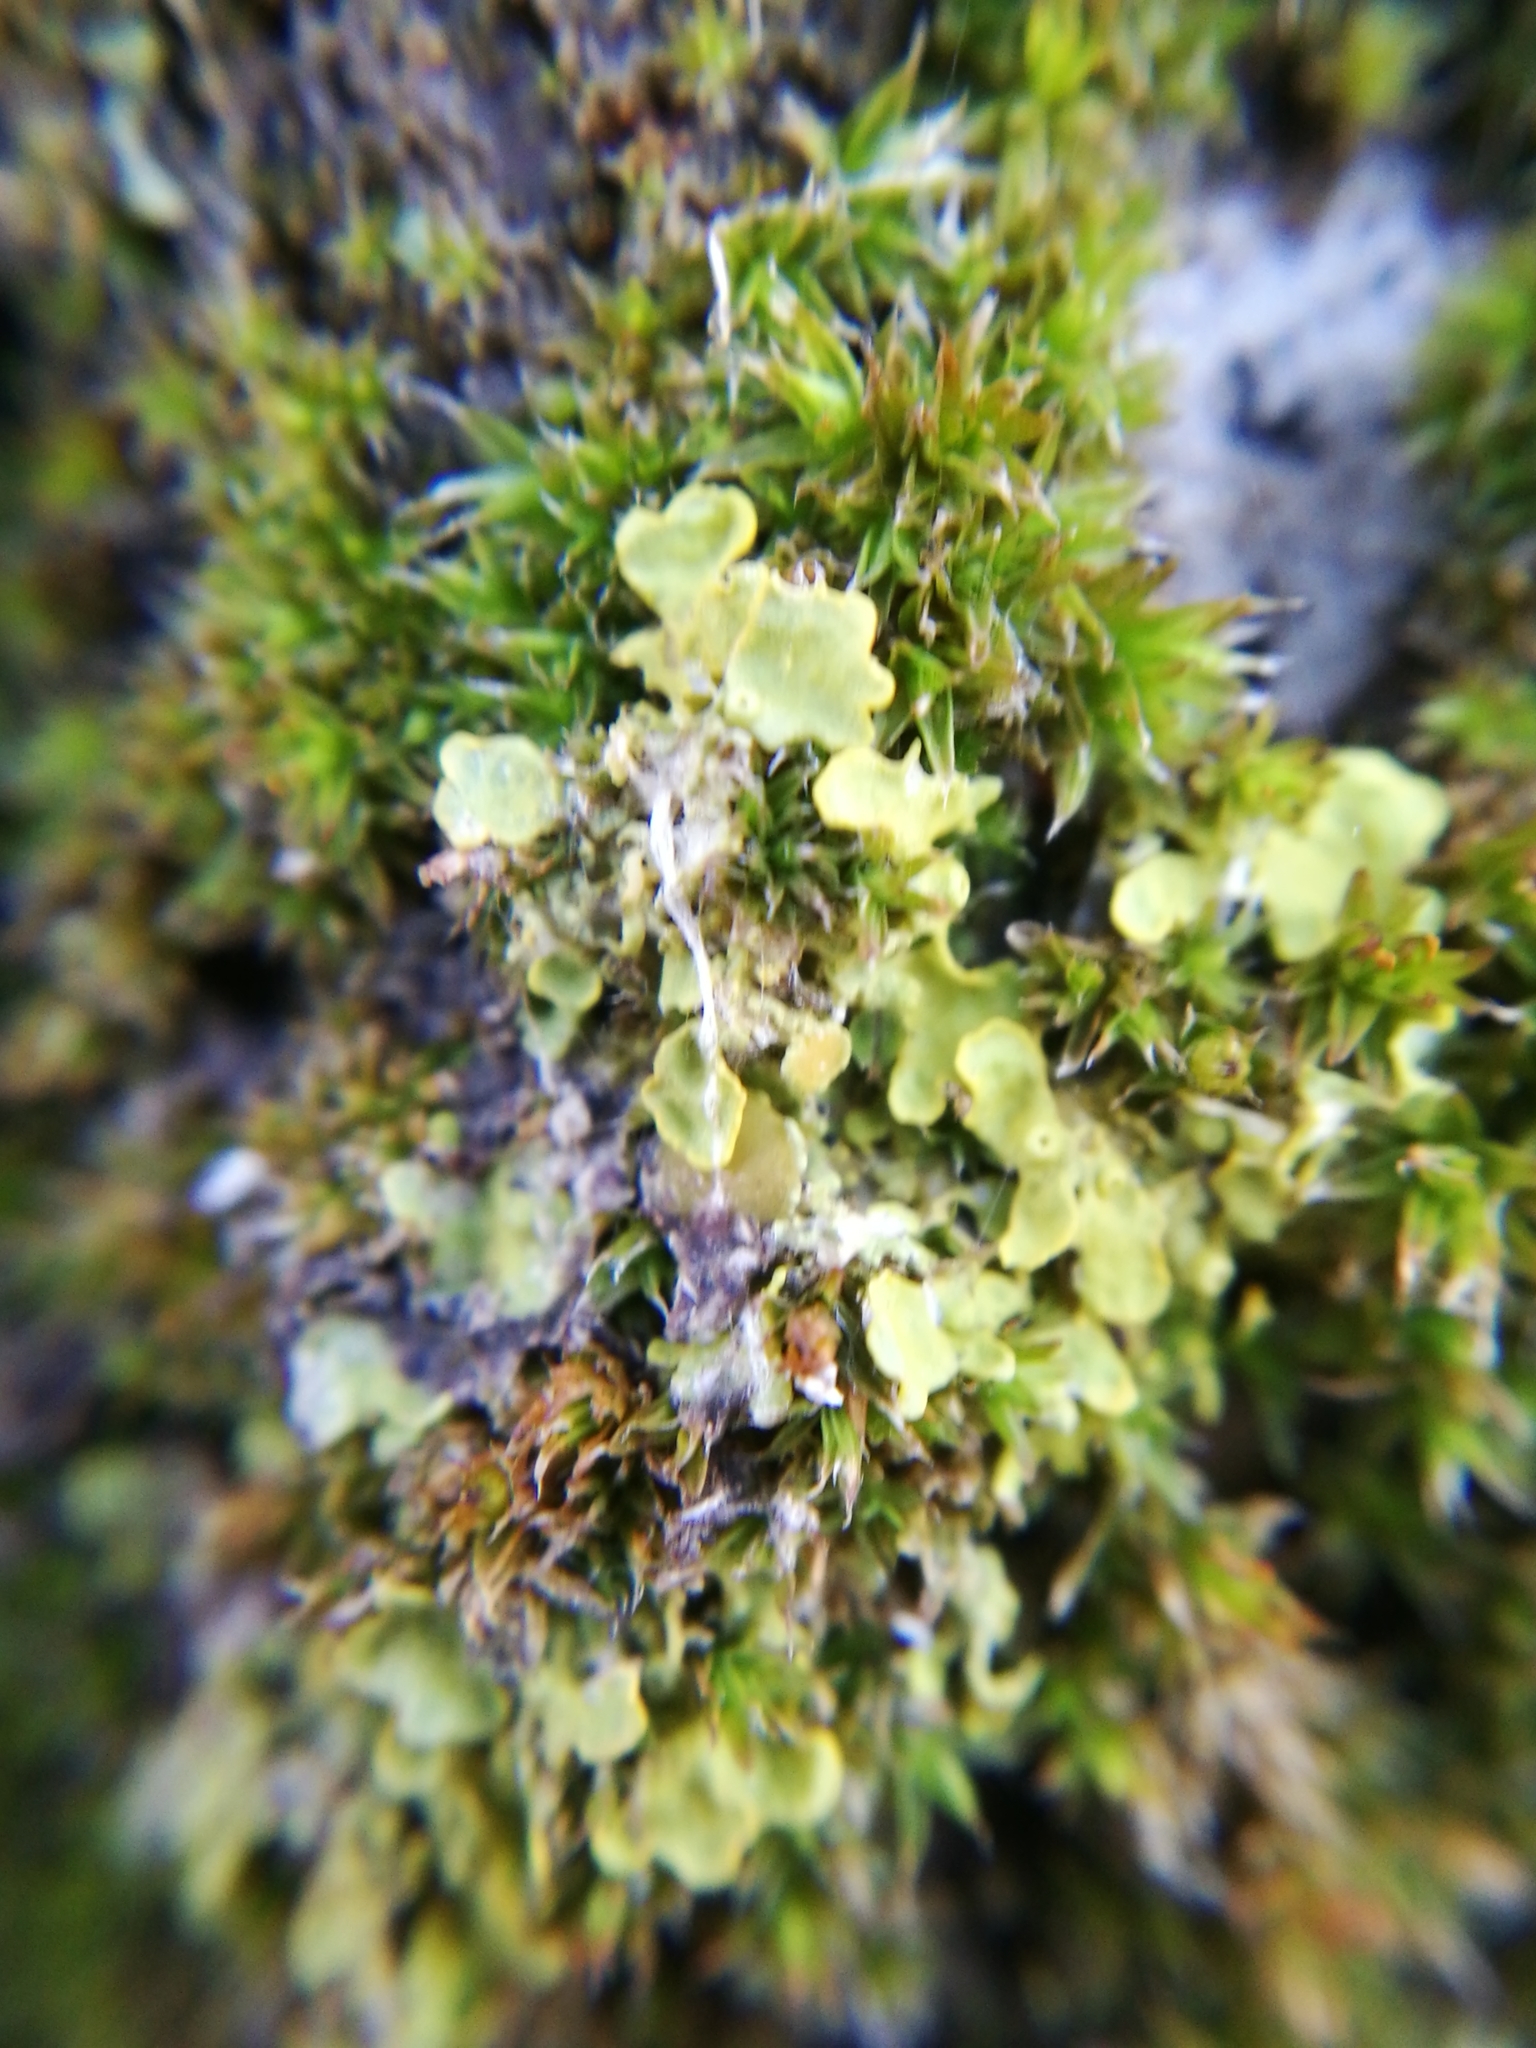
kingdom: Fungi
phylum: Ascomycota
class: Lecanoromycetes
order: Teloschistales
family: Teloschistaceae
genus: Xanthoria
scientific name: Xanthoria parietina
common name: Common orange lichen
